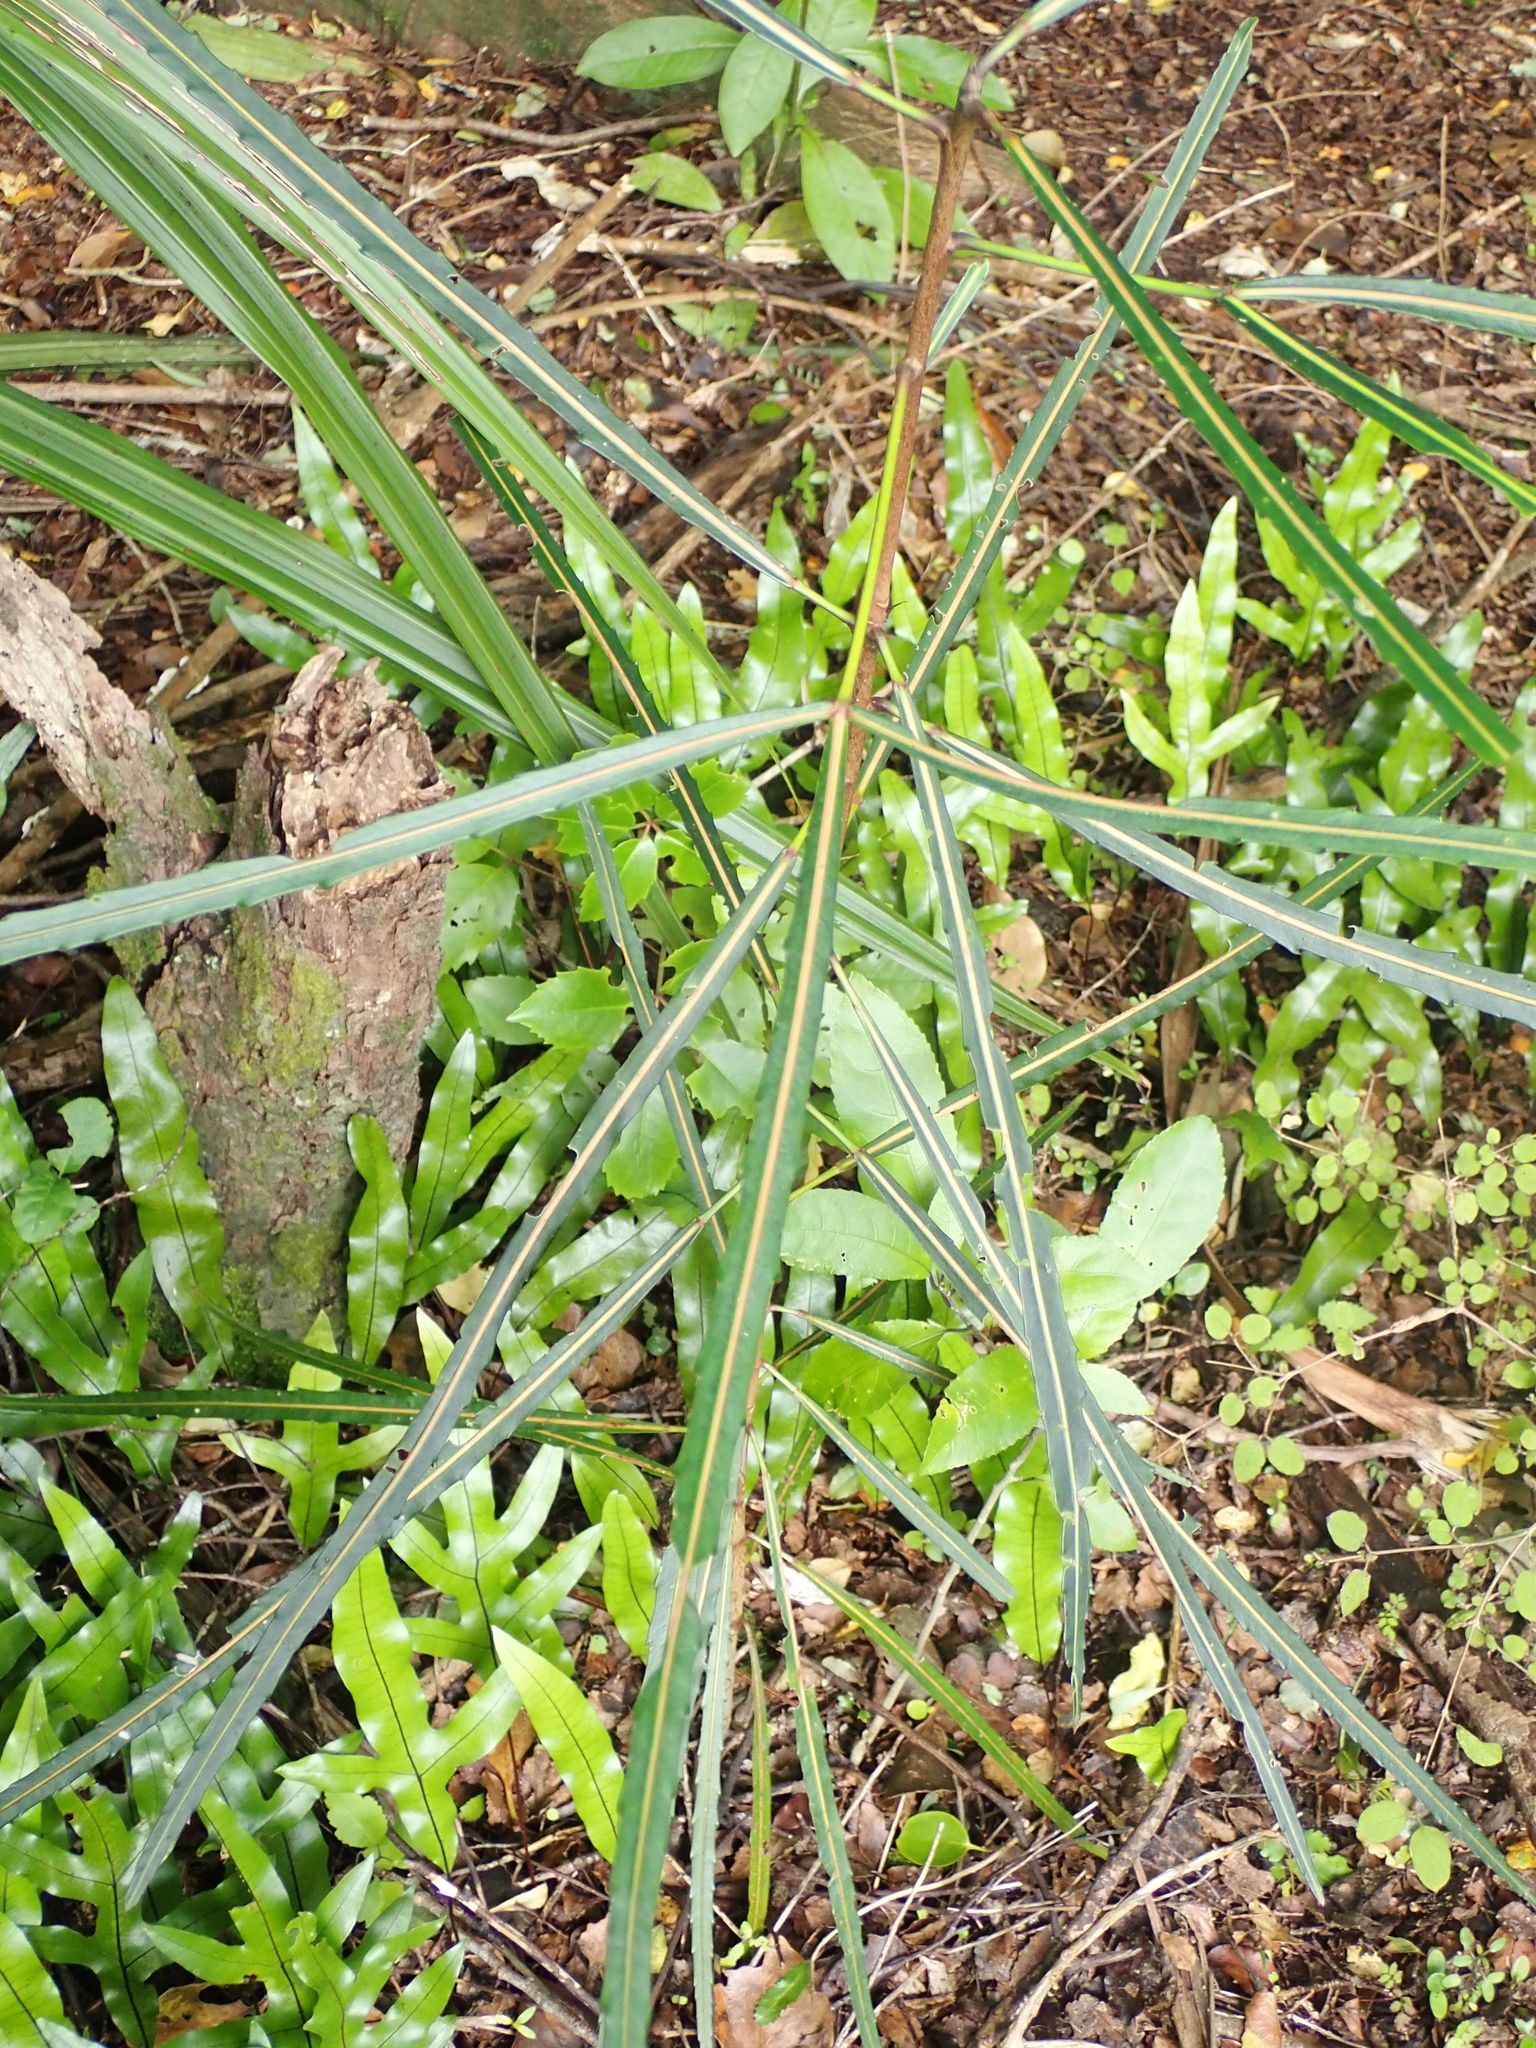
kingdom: Plantae
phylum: Tracheophyta
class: Magnoliopsida
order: Apiales
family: Araliaceae
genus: Pseudopanax
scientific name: Pseudopanax
